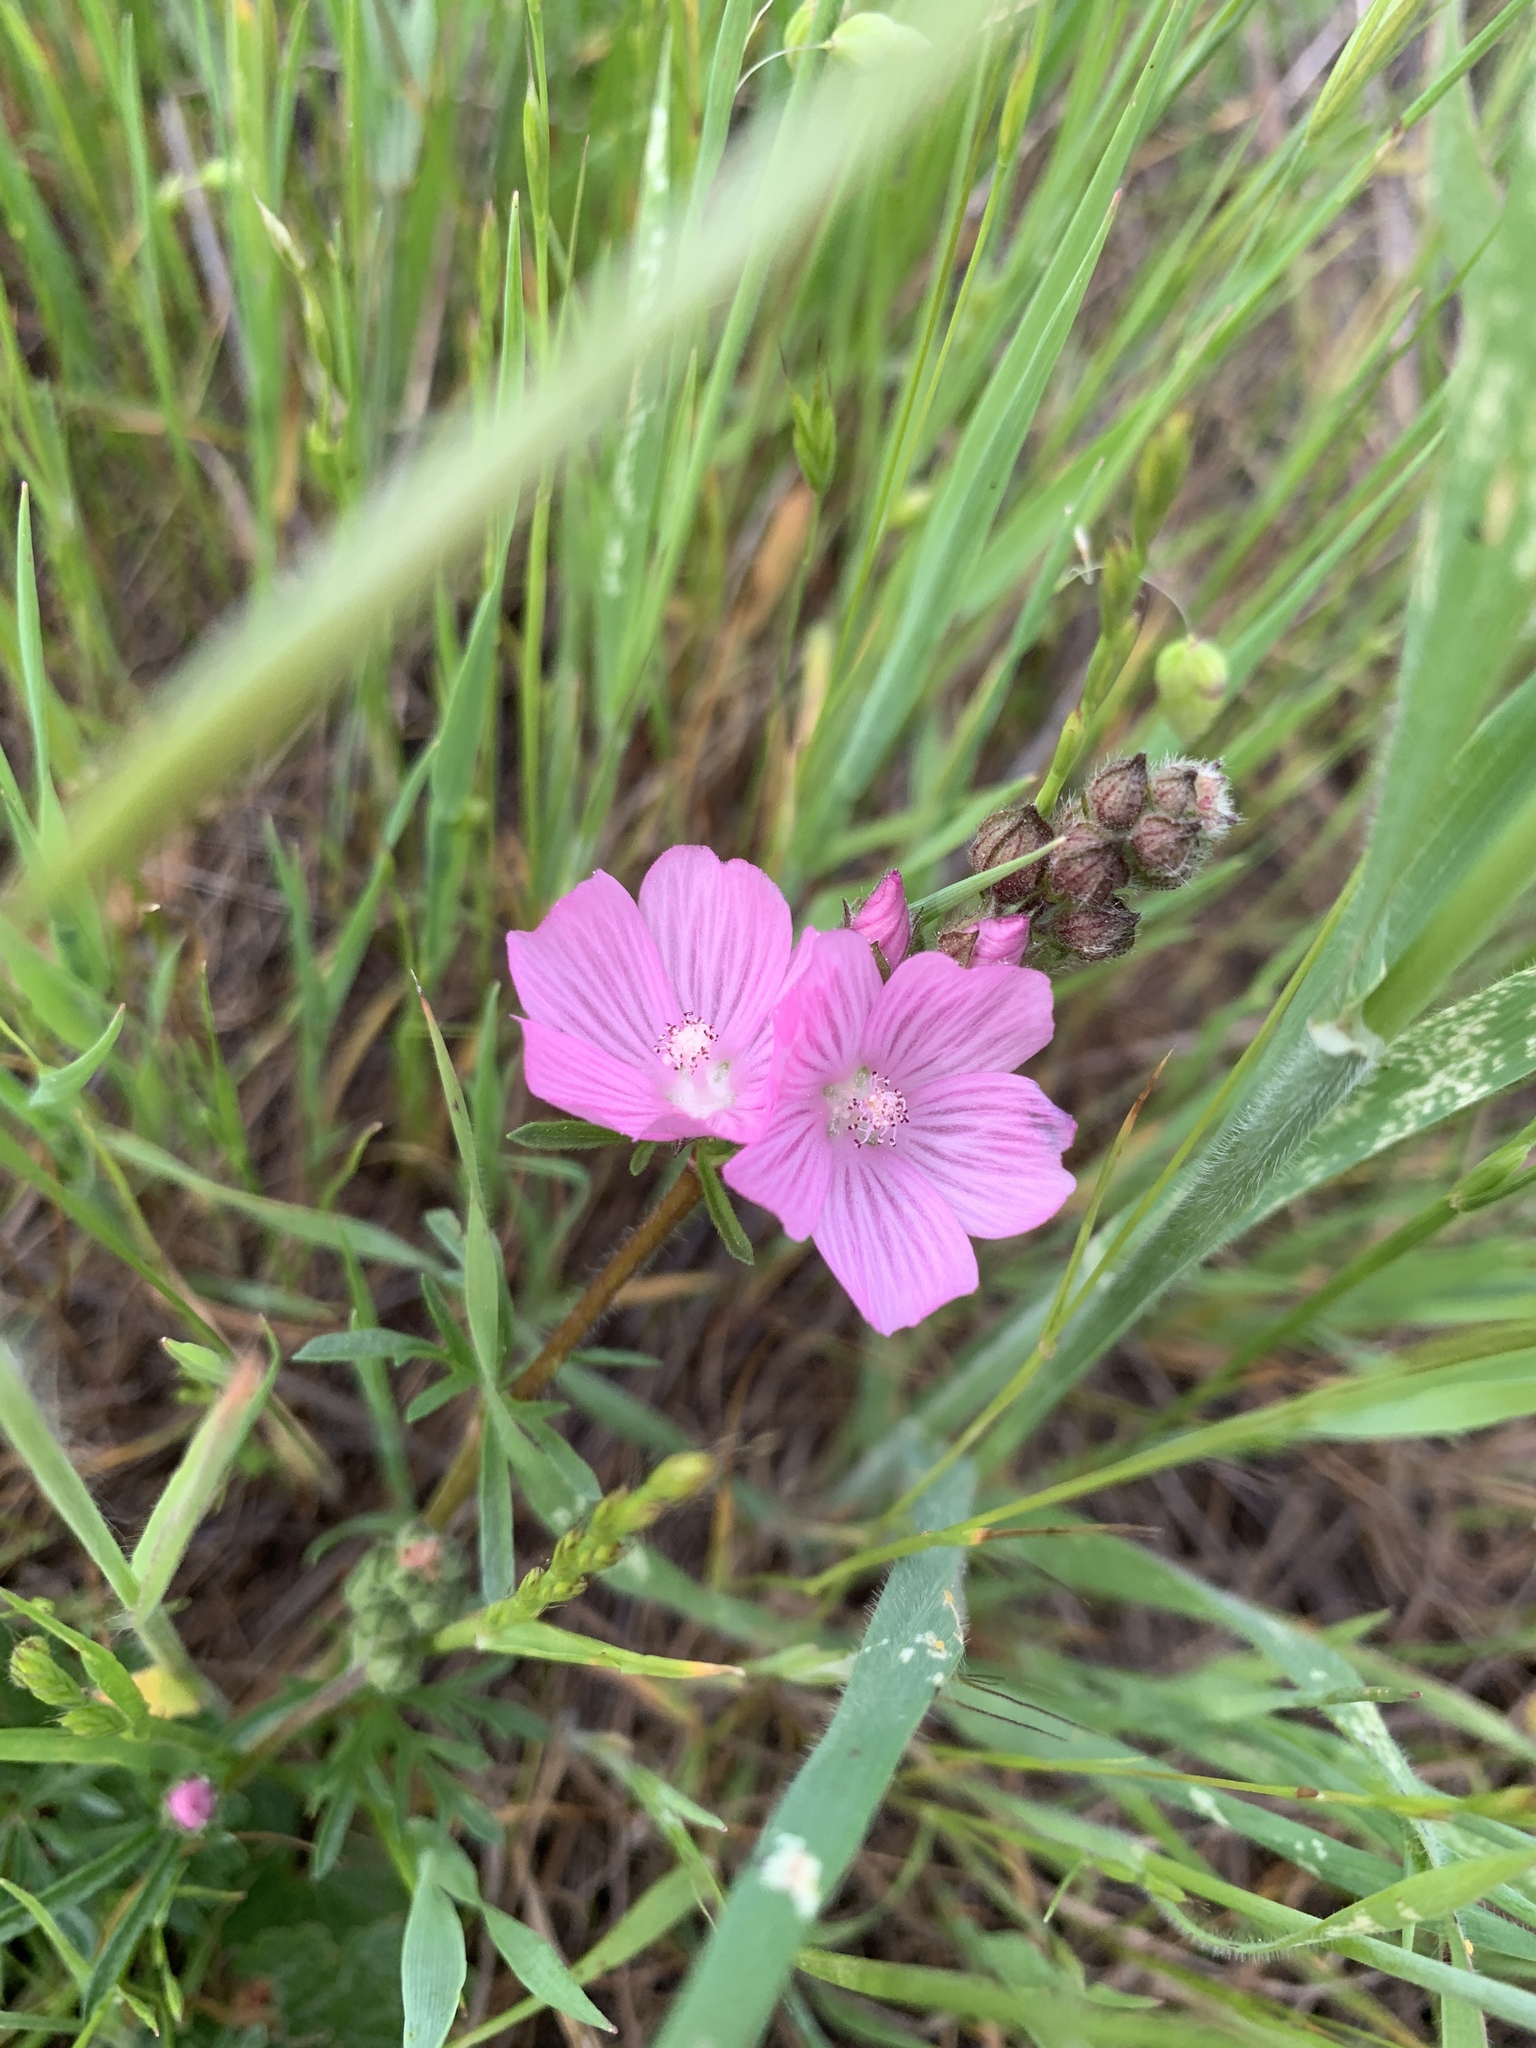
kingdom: Plantae
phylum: Tracheophyta
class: Magnoliopsida
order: Malvales
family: Malvaceae
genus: Sidalcea
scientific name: Sidalcea malviflora
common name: Greek mallow
